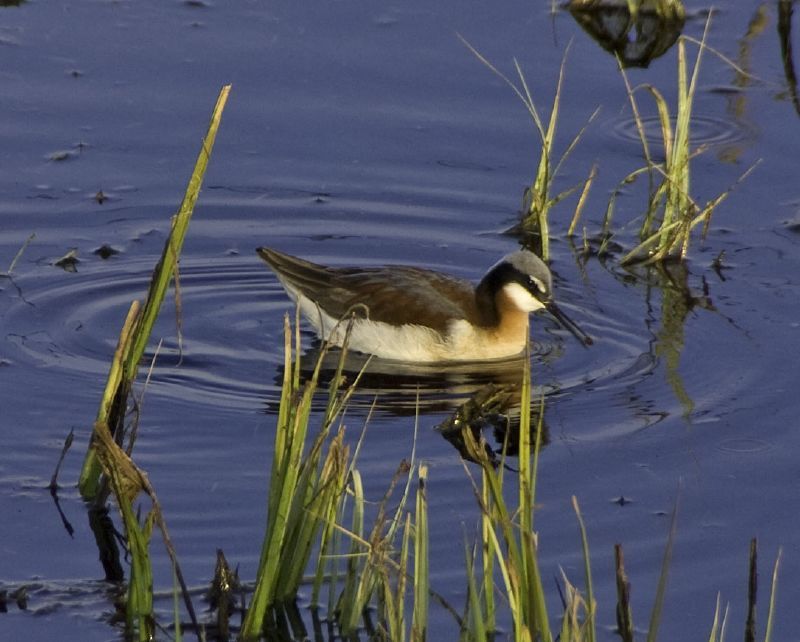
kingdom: Animalia
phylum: Chordata
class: Aves
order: Charadriiformes
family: Scolopacidae
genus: Phalaropus
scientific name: Phalaropus tricolor
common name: Wilson's phalarope
